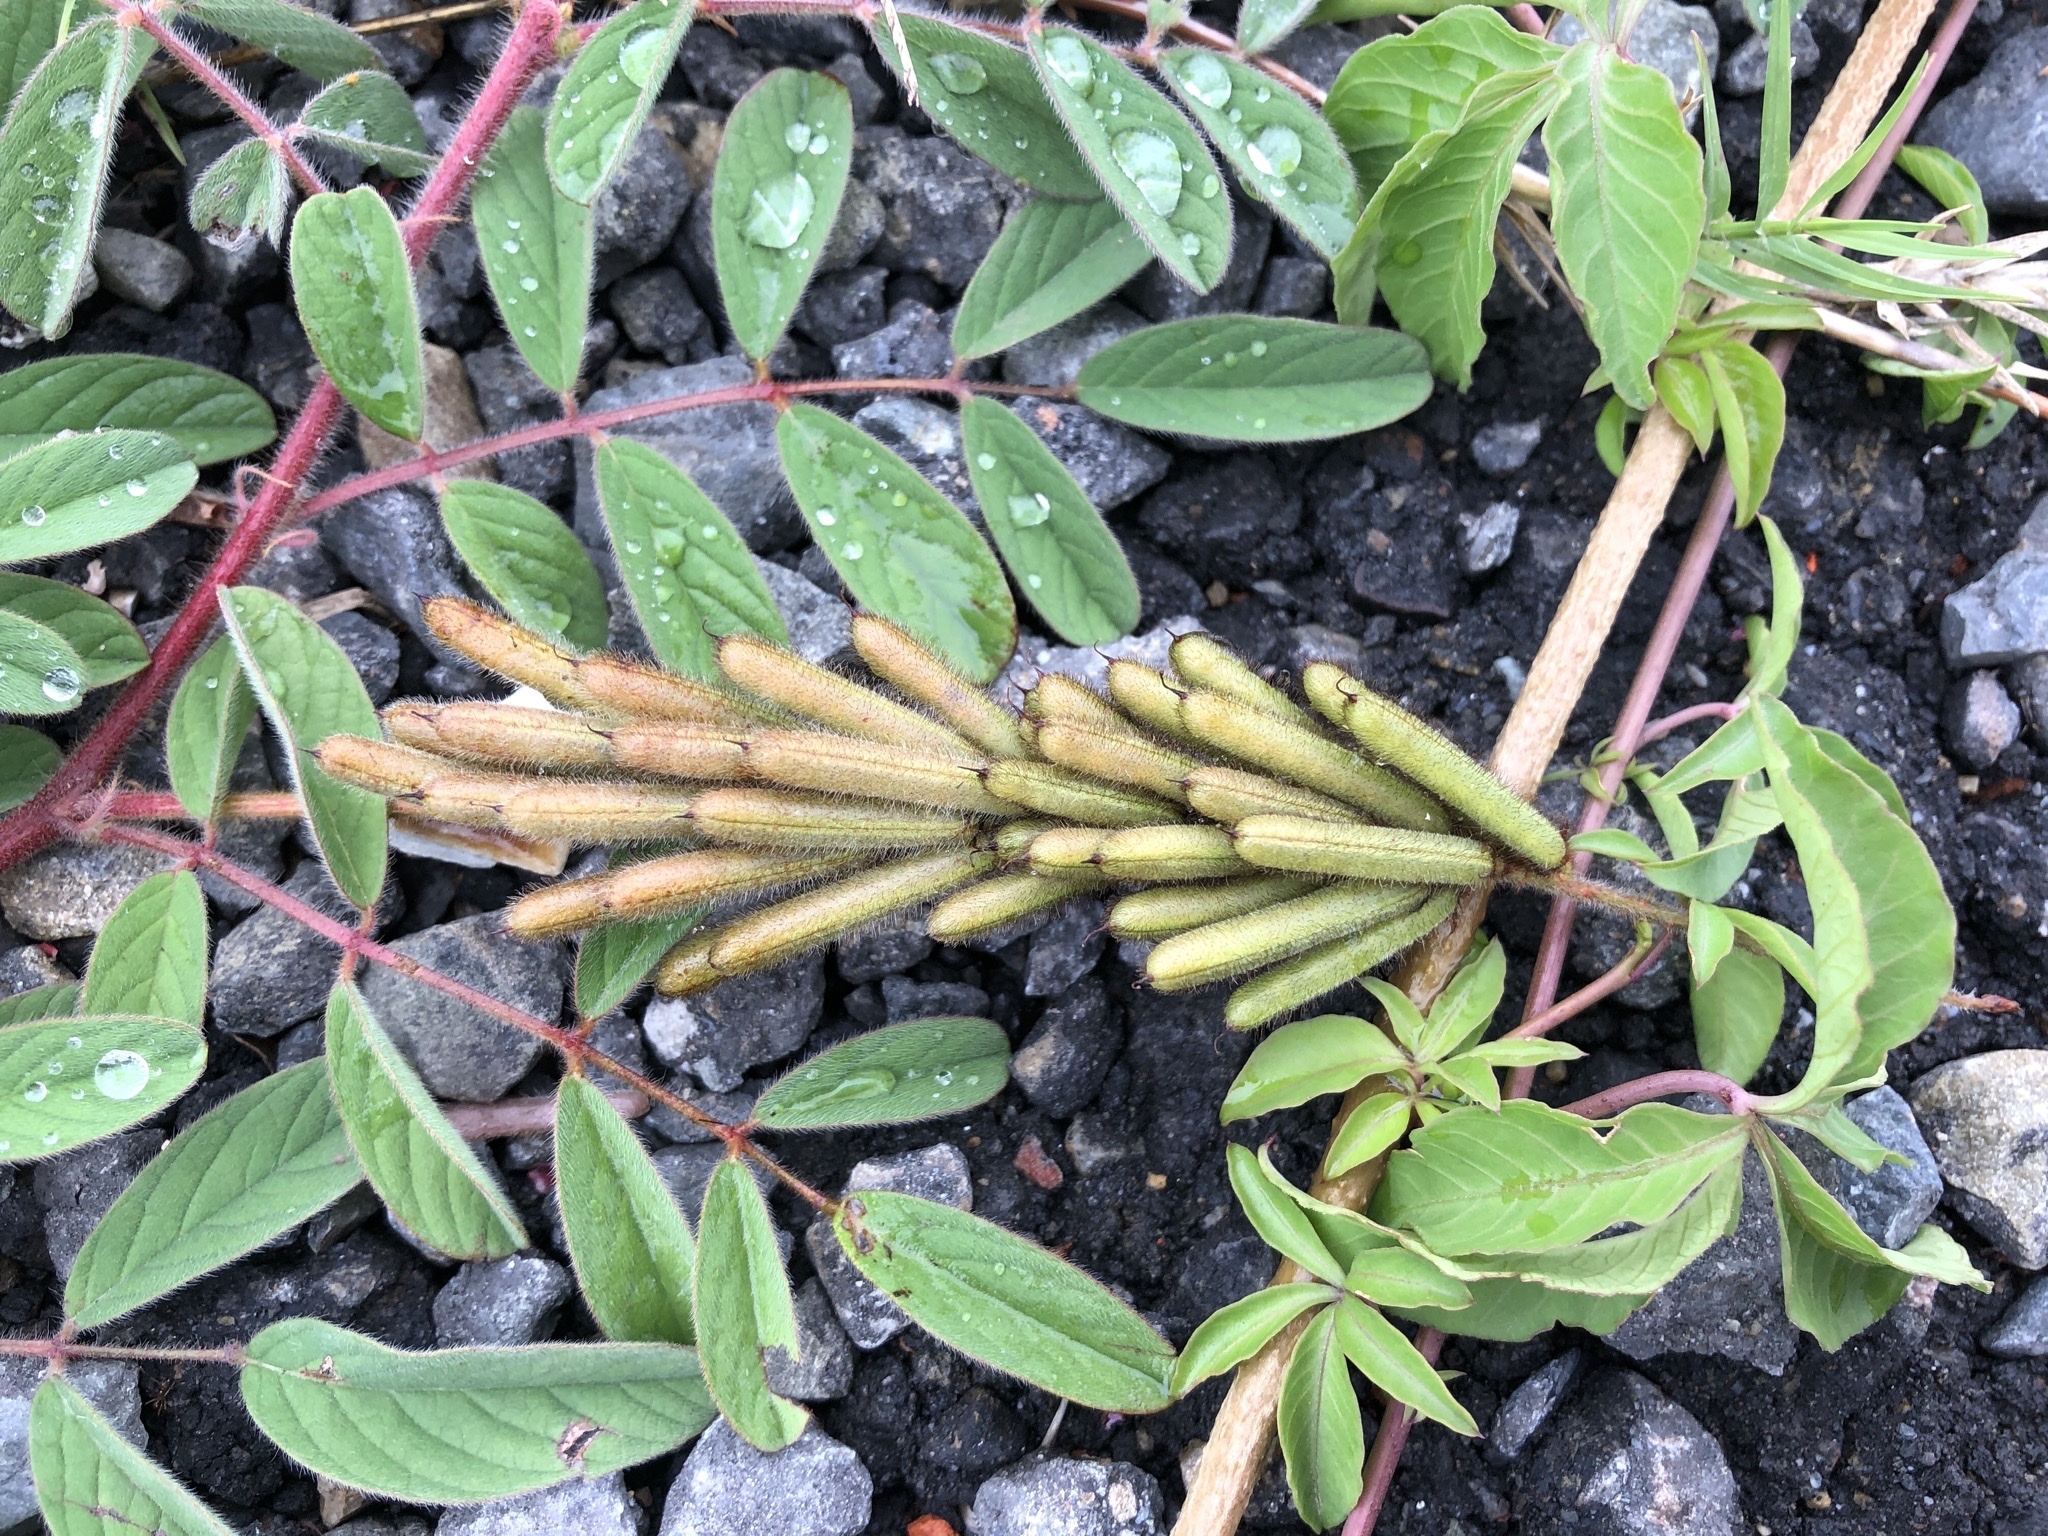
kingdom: Plantae
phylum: Tracheophyta
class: Magnoliopsida
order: Fabales
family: Fabaceae
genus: Indigofera
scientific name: Indigofera hirsuta
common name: Hairy indigo
